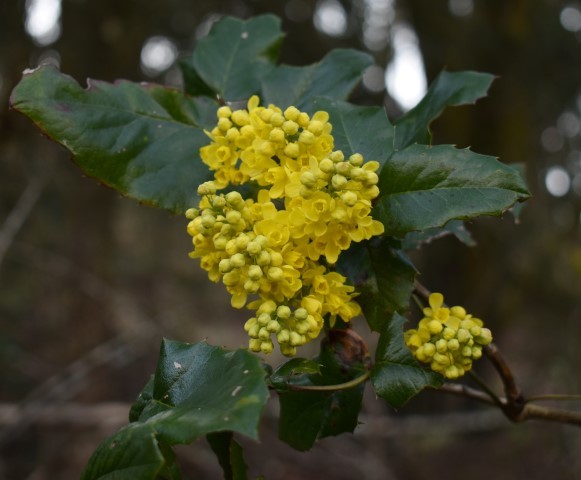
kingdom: Plantae
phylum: Tracheophyta
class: Magnoliopsida
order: Ranunculales
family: Berberidaceae
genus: Mahonia
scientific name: Mahonia aquifolium
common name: Oregon-grape
